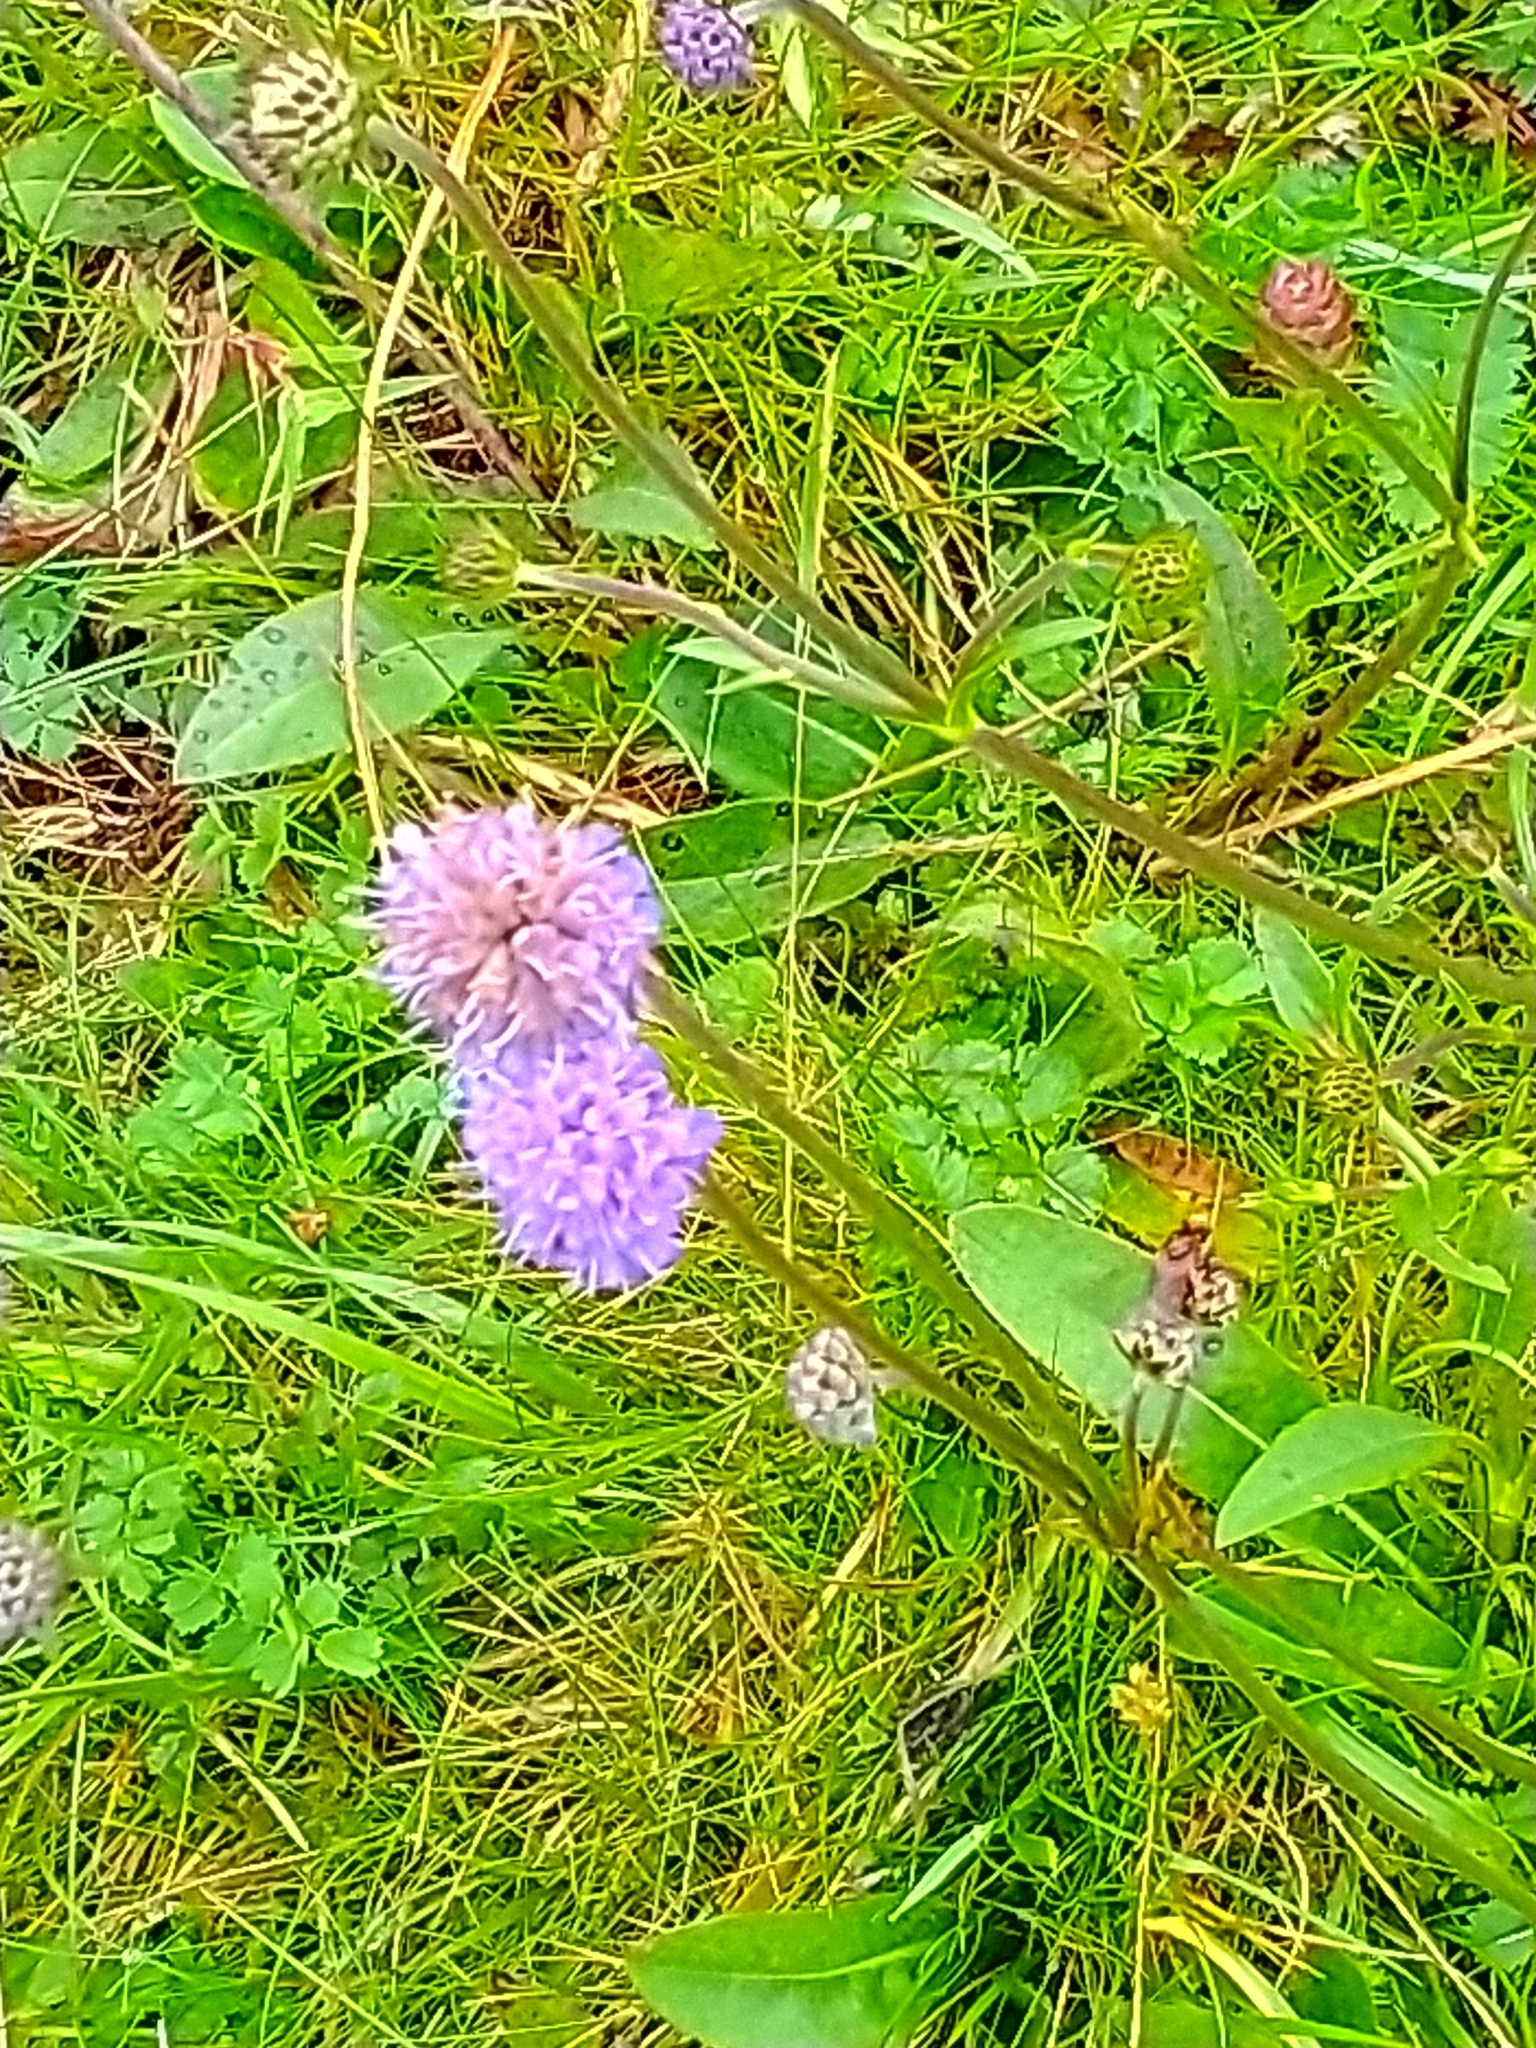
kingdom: Plantae
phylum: Tracheophyta
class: Magnoliopsida
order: Dipsacales
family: Caprifoliaceae
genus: Succisa
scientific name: Succisa pratensis
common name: Devil's-bit
